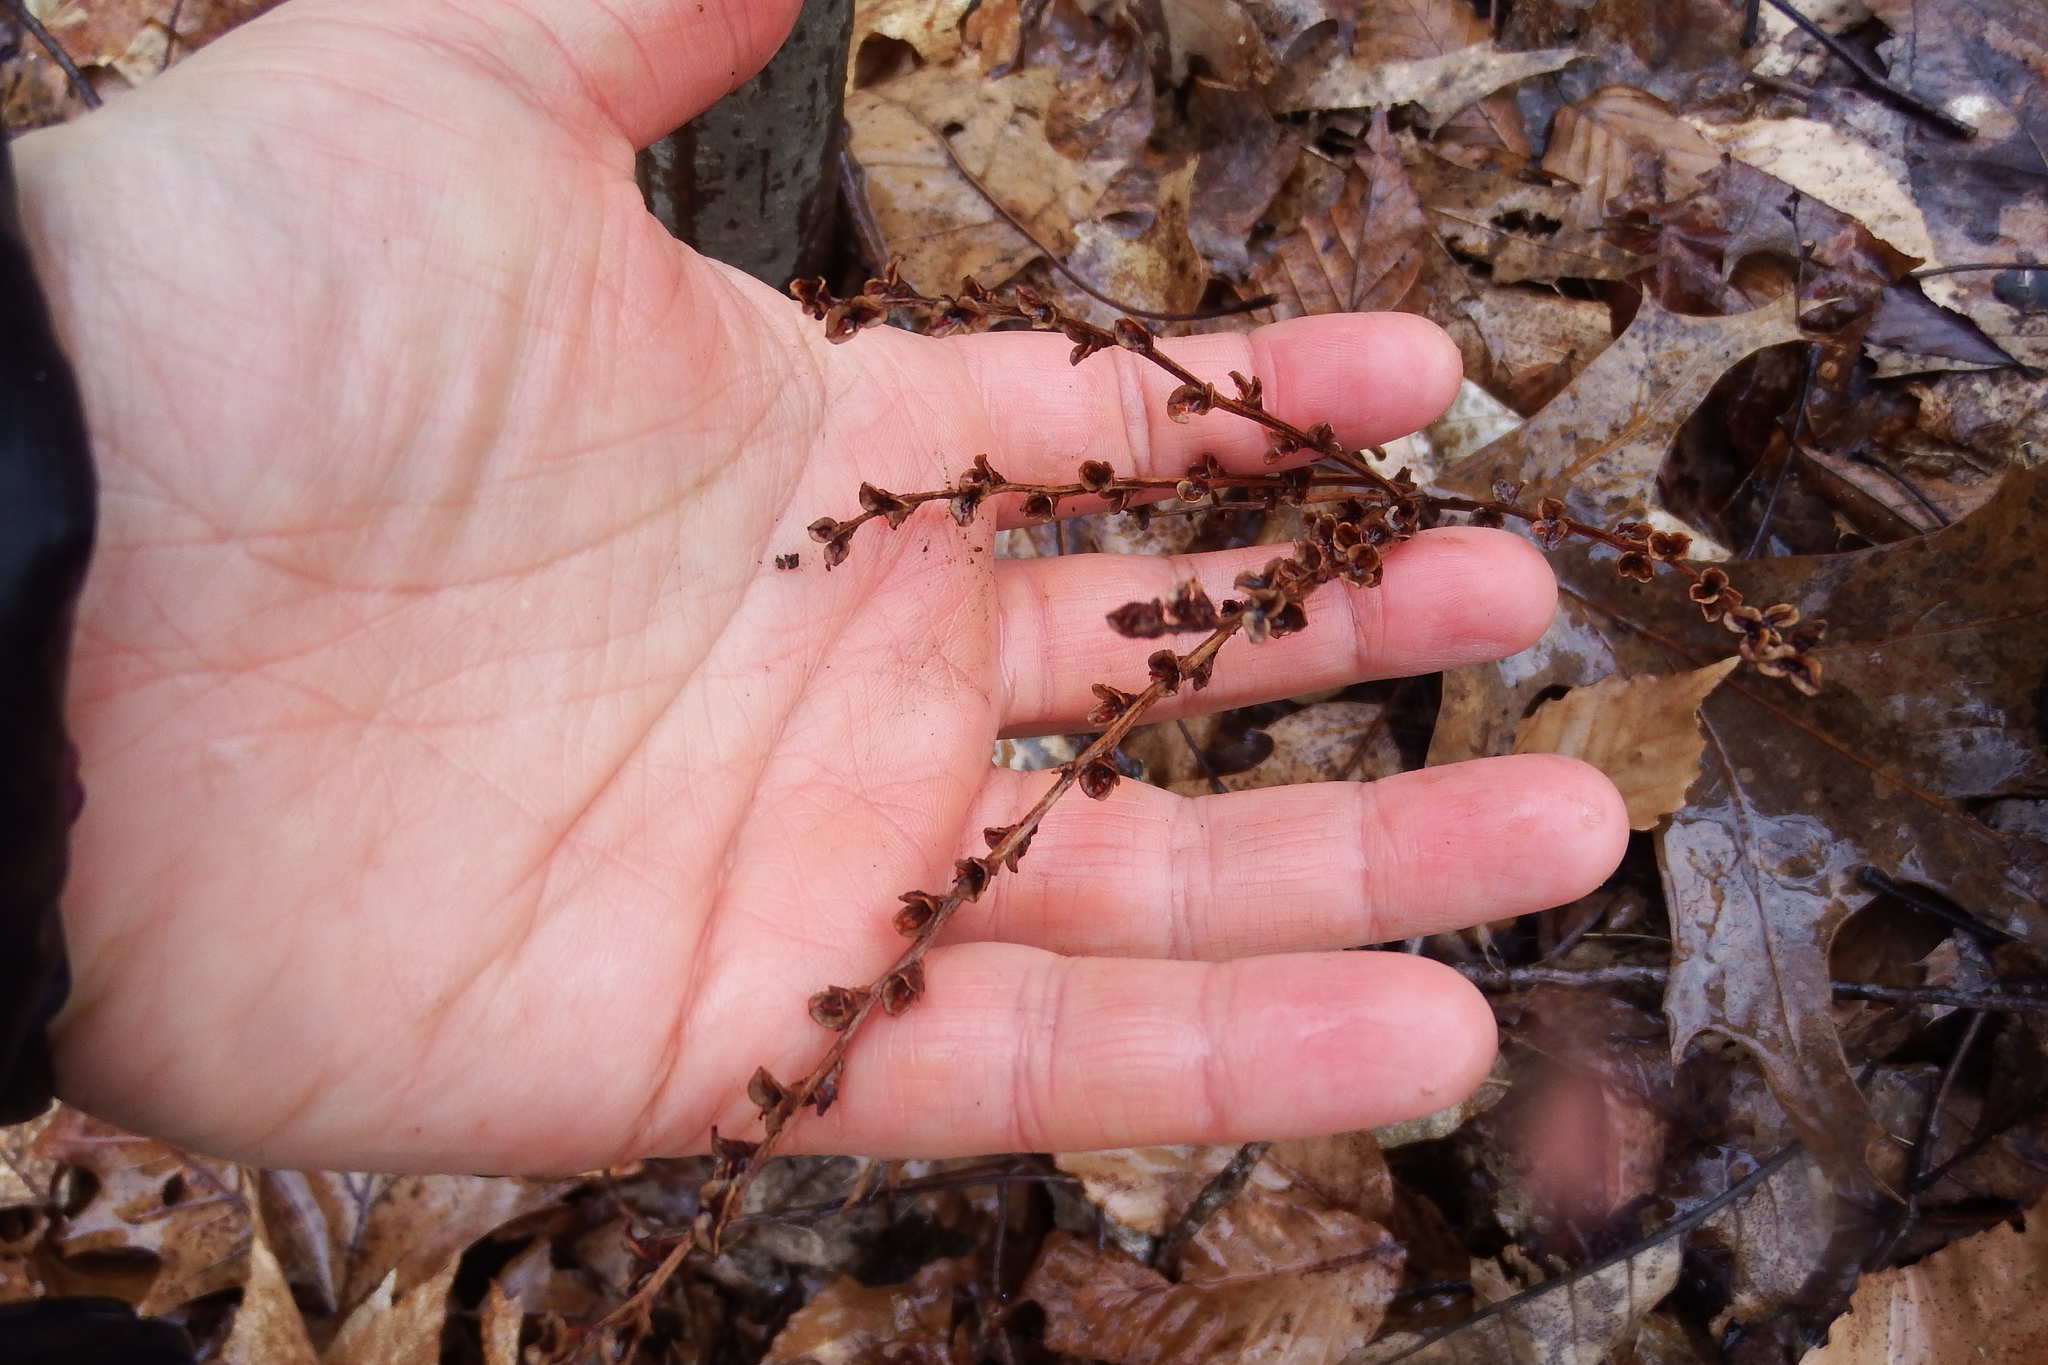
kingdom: Plantae
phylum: Tracheophyta
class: Magnoliopsida
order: Lamiales
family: Orobanchaceae
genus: Epifagus
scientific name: Epifagus virginiana
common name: Beechdrops
